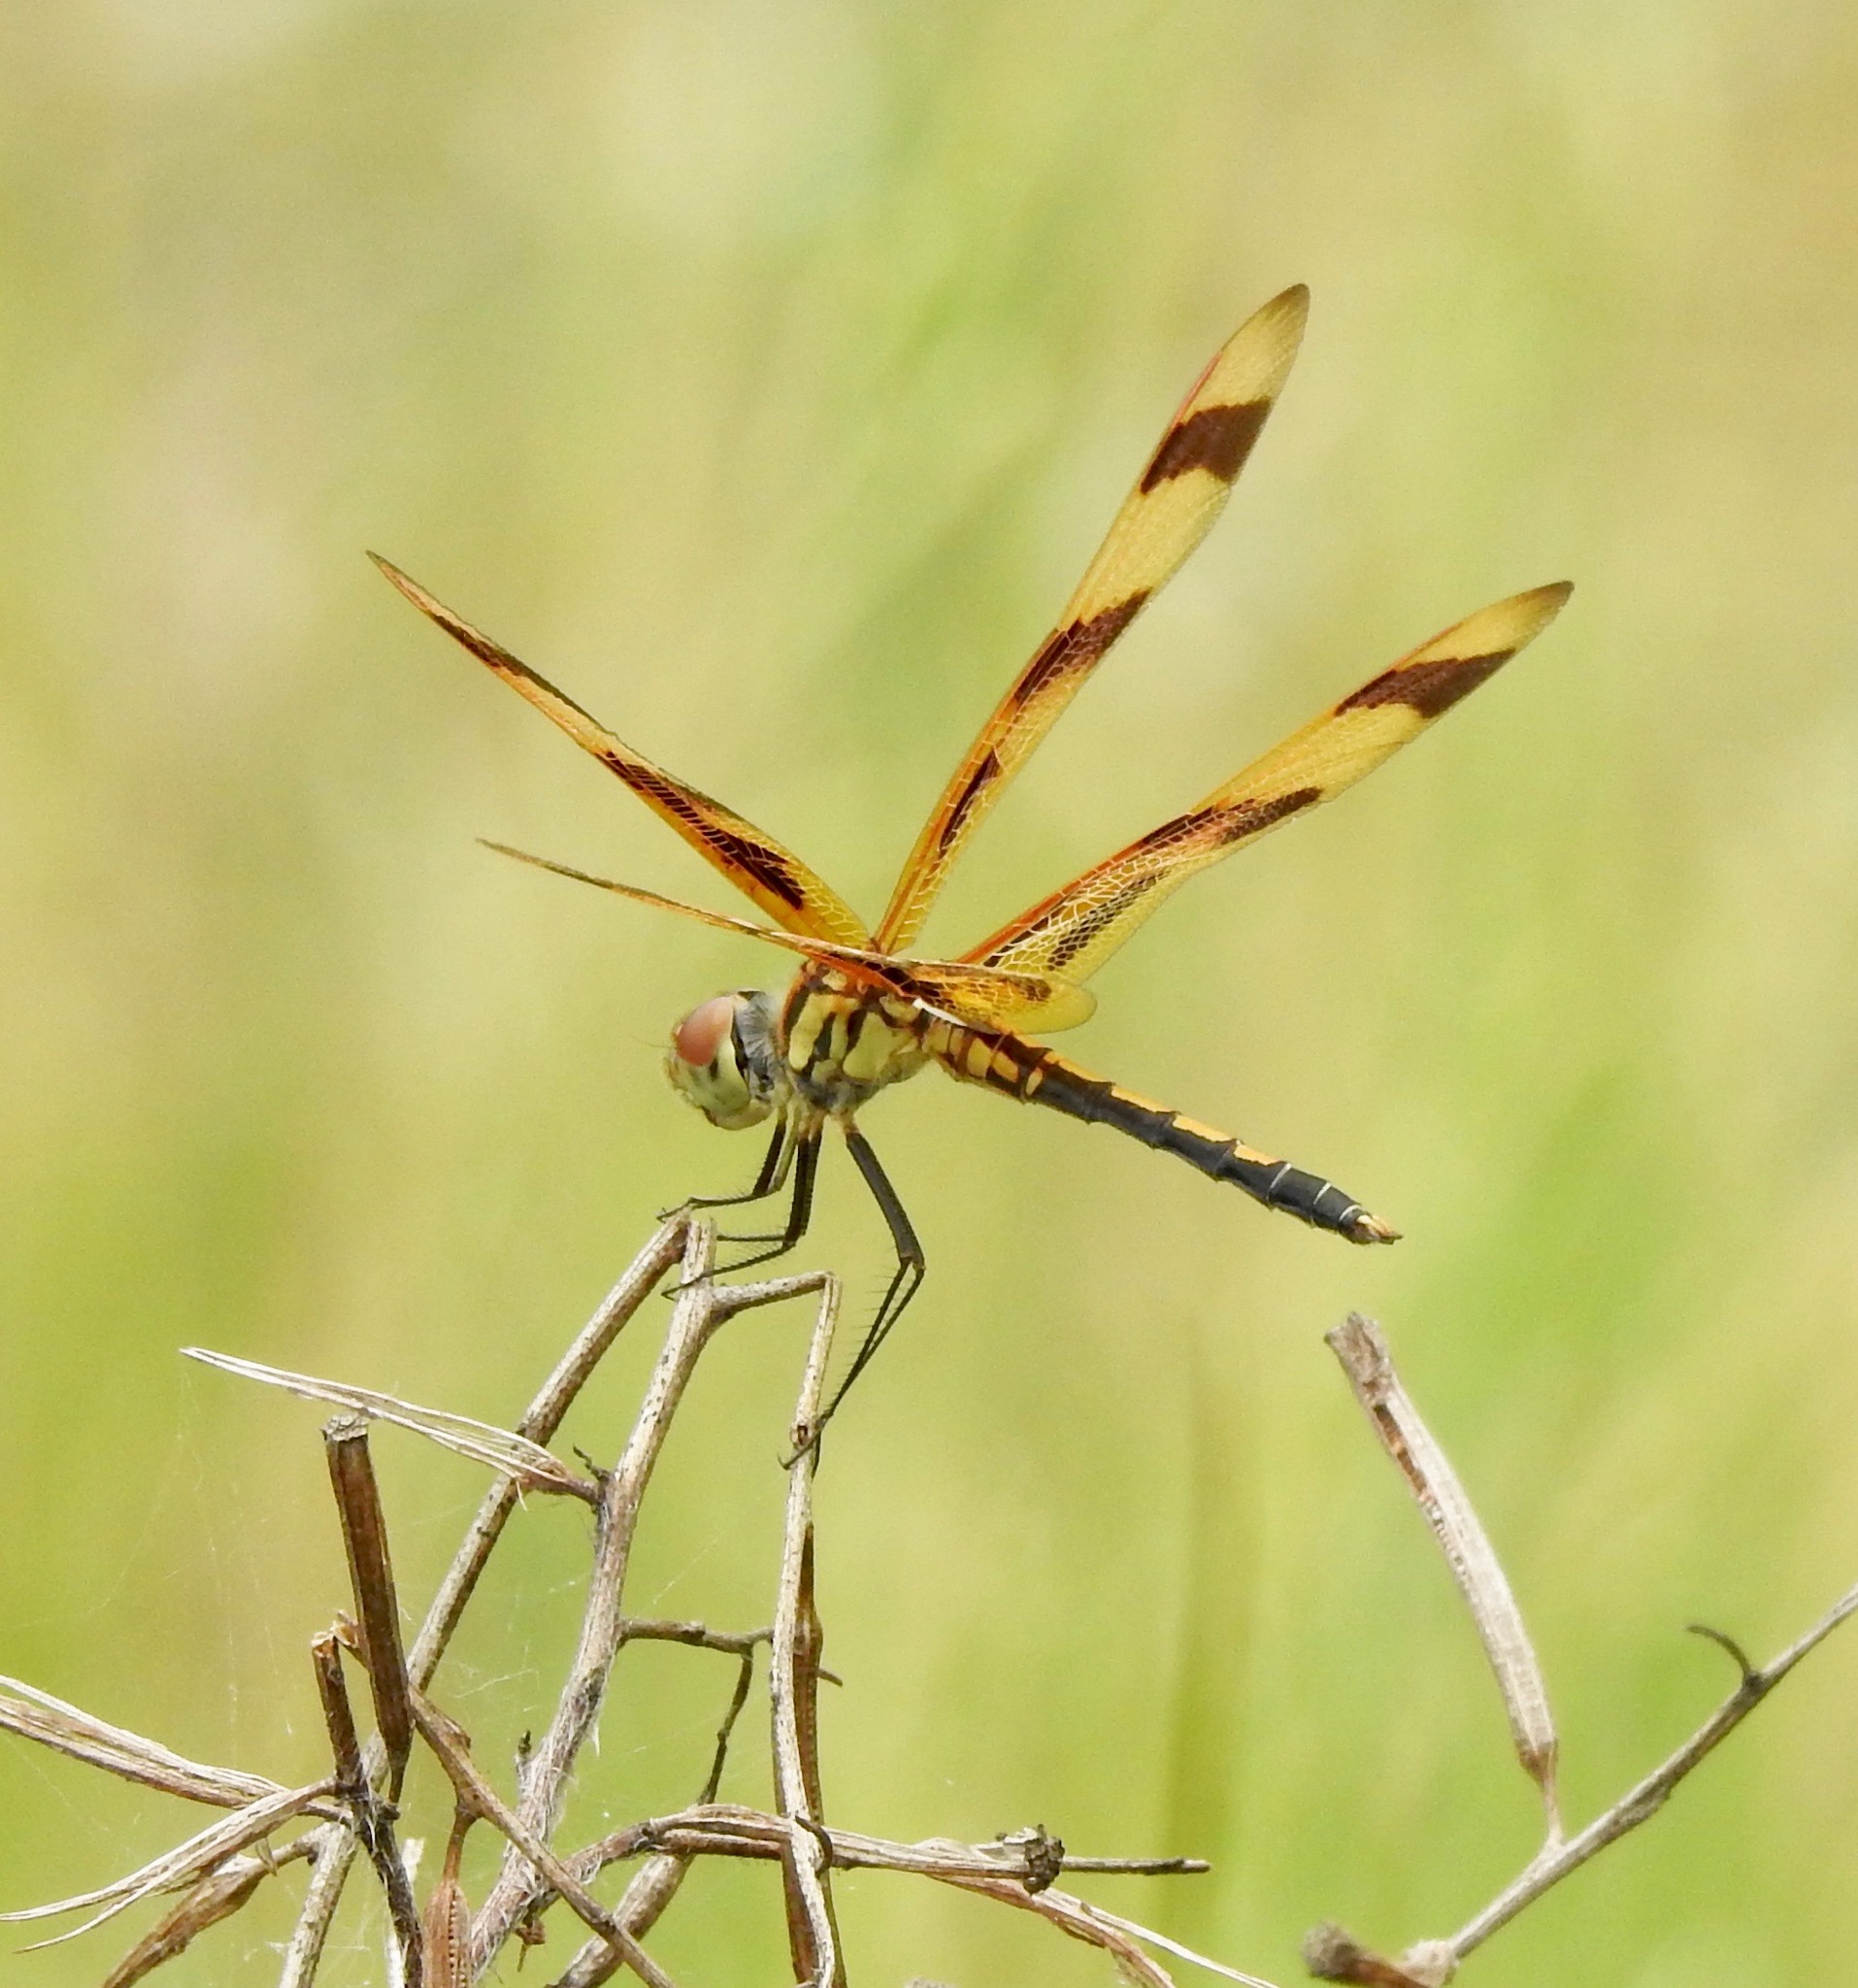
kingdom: Animalia
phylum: Arthropoda
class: Insecta
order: Odonata
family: Libellulidae
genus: Celithemis
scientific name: Celithemis eponina
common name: Halloween pennant
